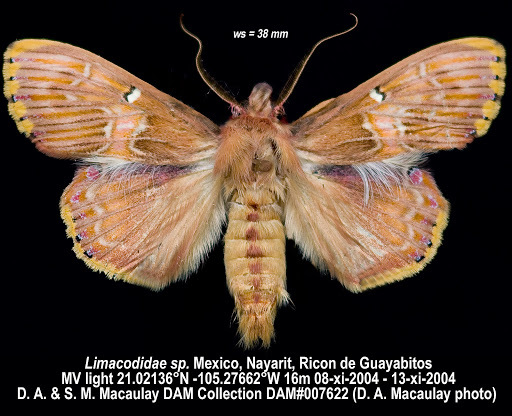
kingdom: Animalia
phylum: Arthropoda
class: Insecta
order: Lepidoptera
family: Erebidae
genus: Sosxetra
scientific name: Sosxetra grata
